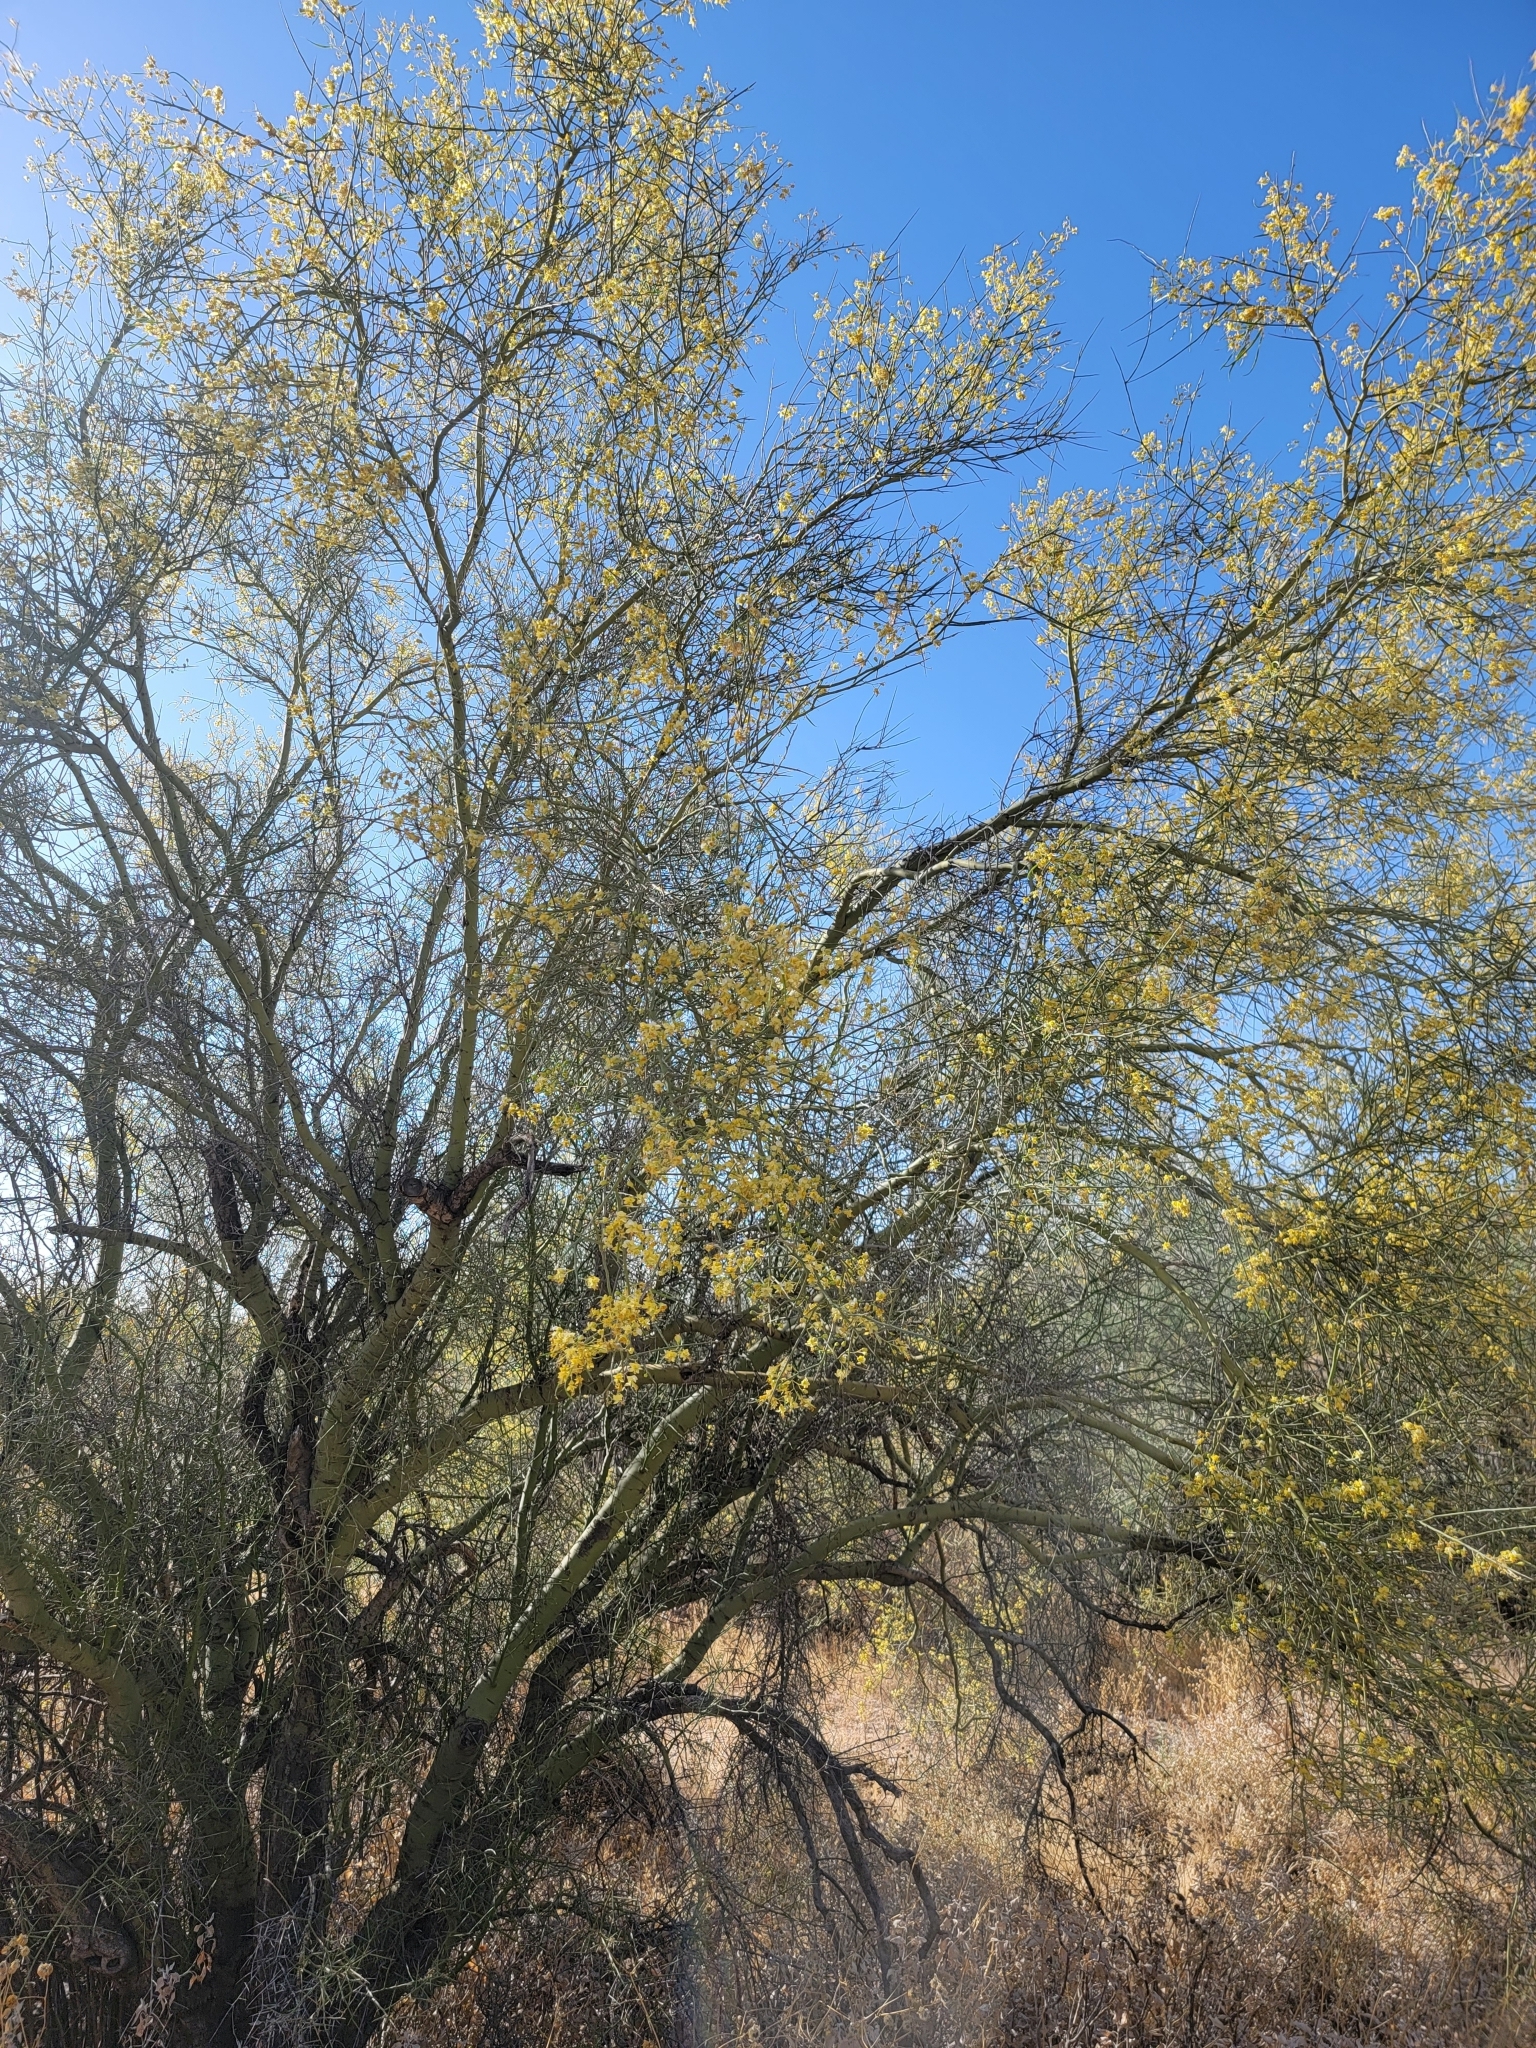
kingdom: Plantae
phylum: Tracheophyta
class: Magnoliopsida
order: Fabales
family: Fabaceae
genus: Parkinsonia
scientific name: Parkinsonia microphylla
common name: Yellow paloverde
